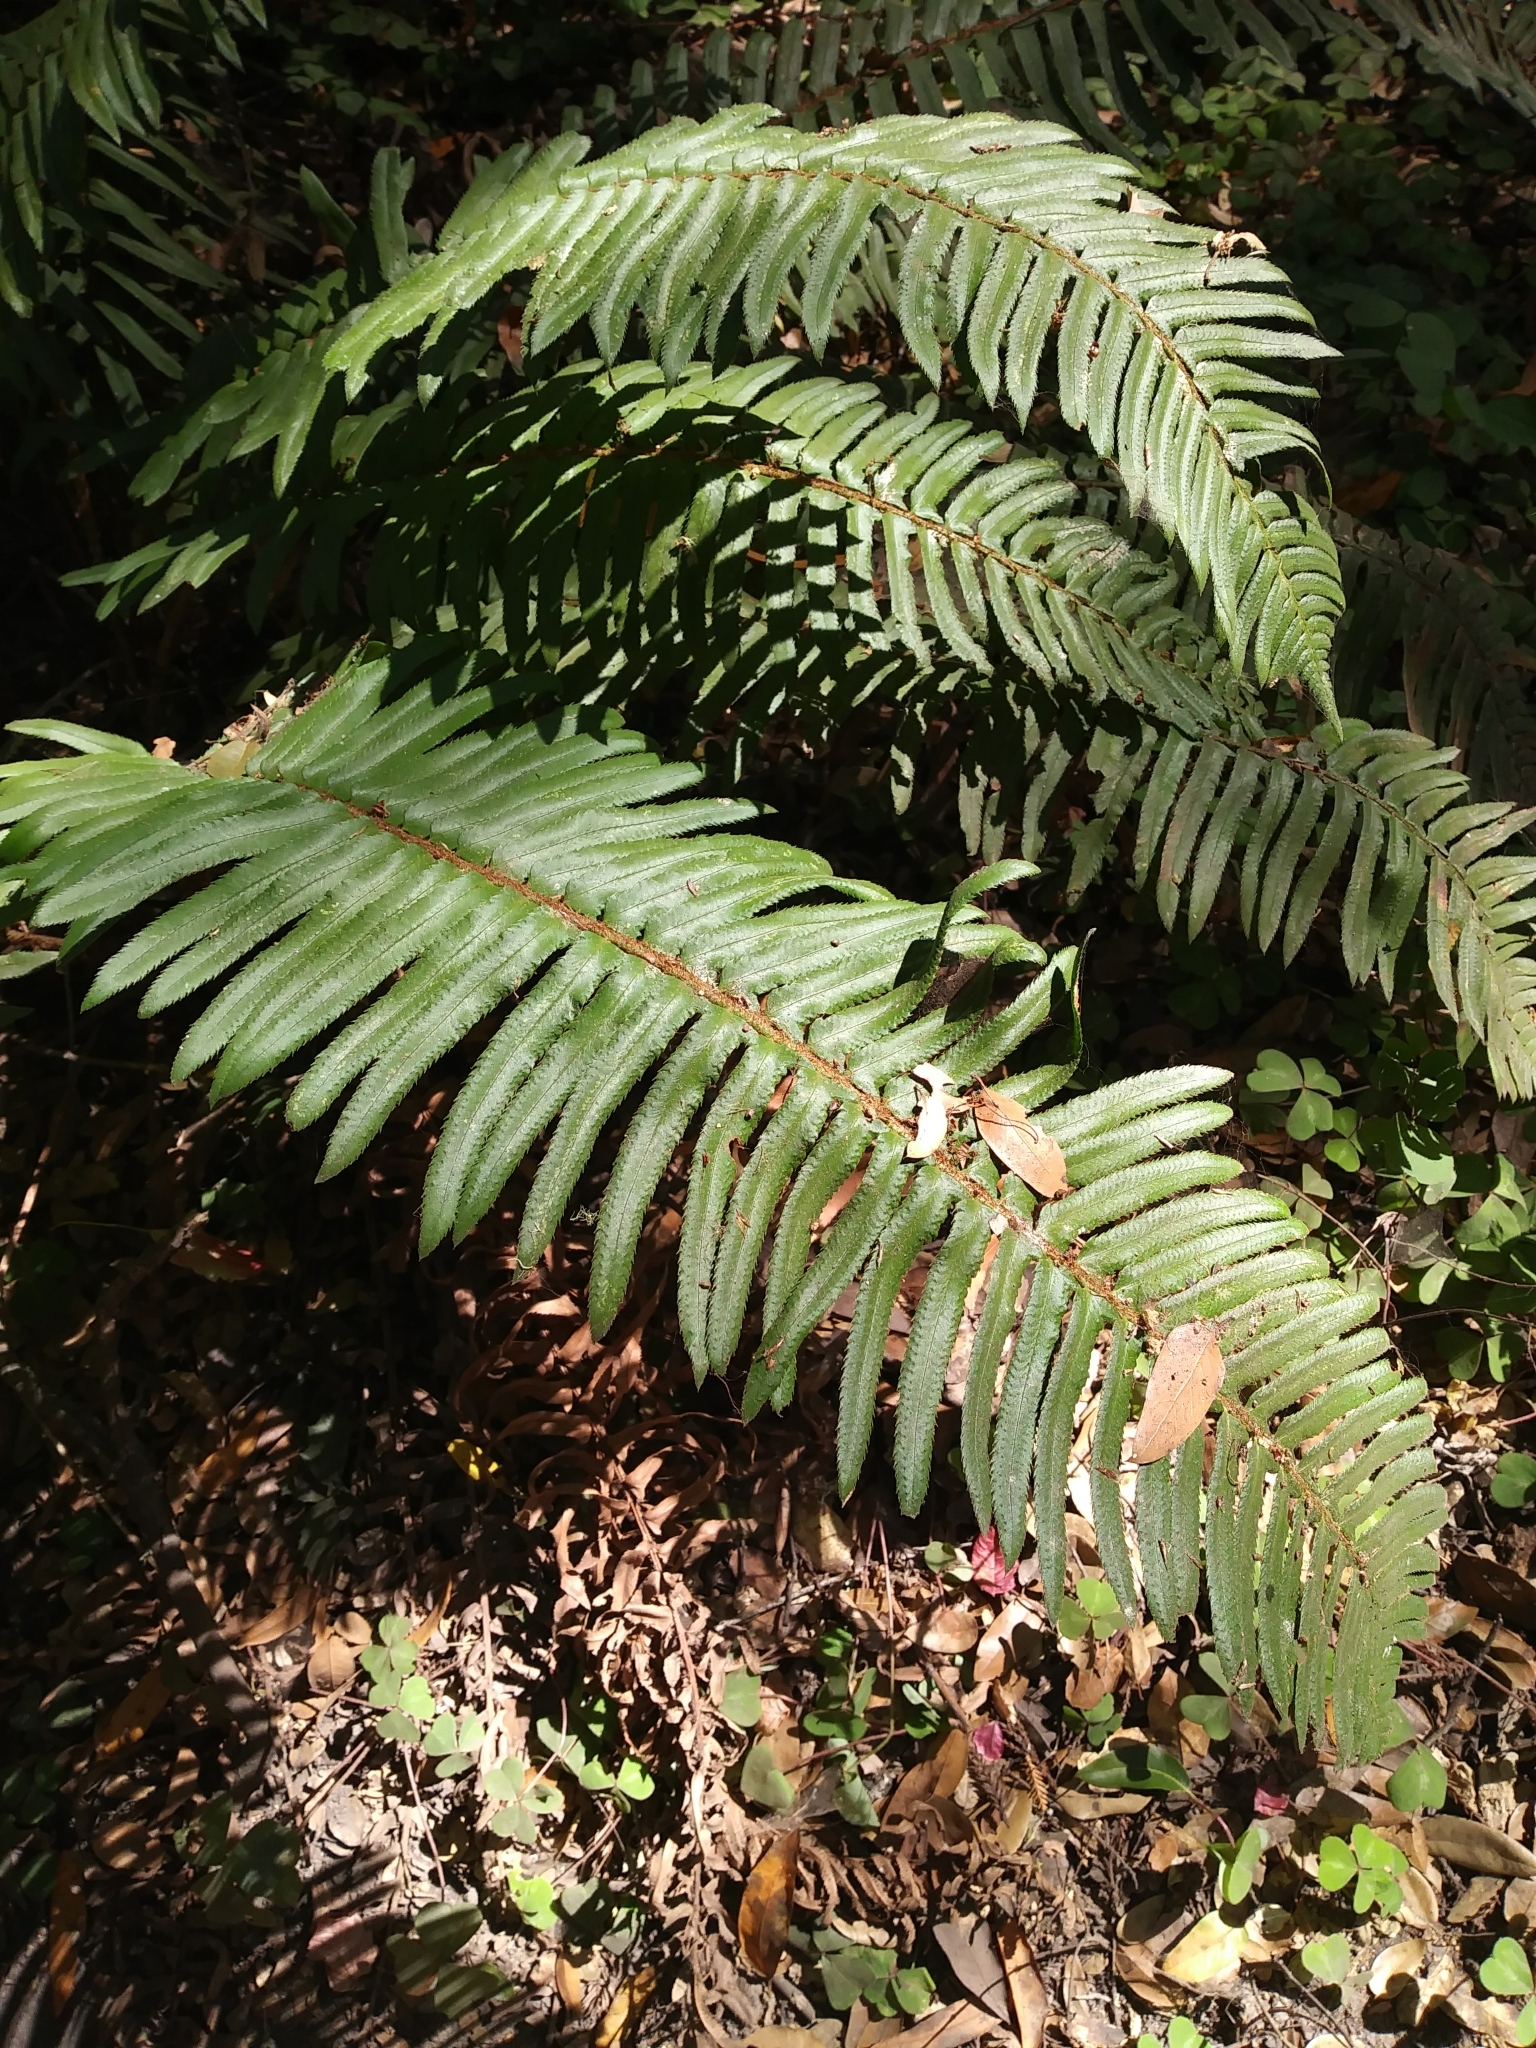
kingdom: Plantae
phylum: Tracheophyta
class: Polypodiopsida
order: Polypodiales
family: Dryopteridaceae
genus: Polystichum
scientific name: Polystichum munitum
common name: Western sword-fern
